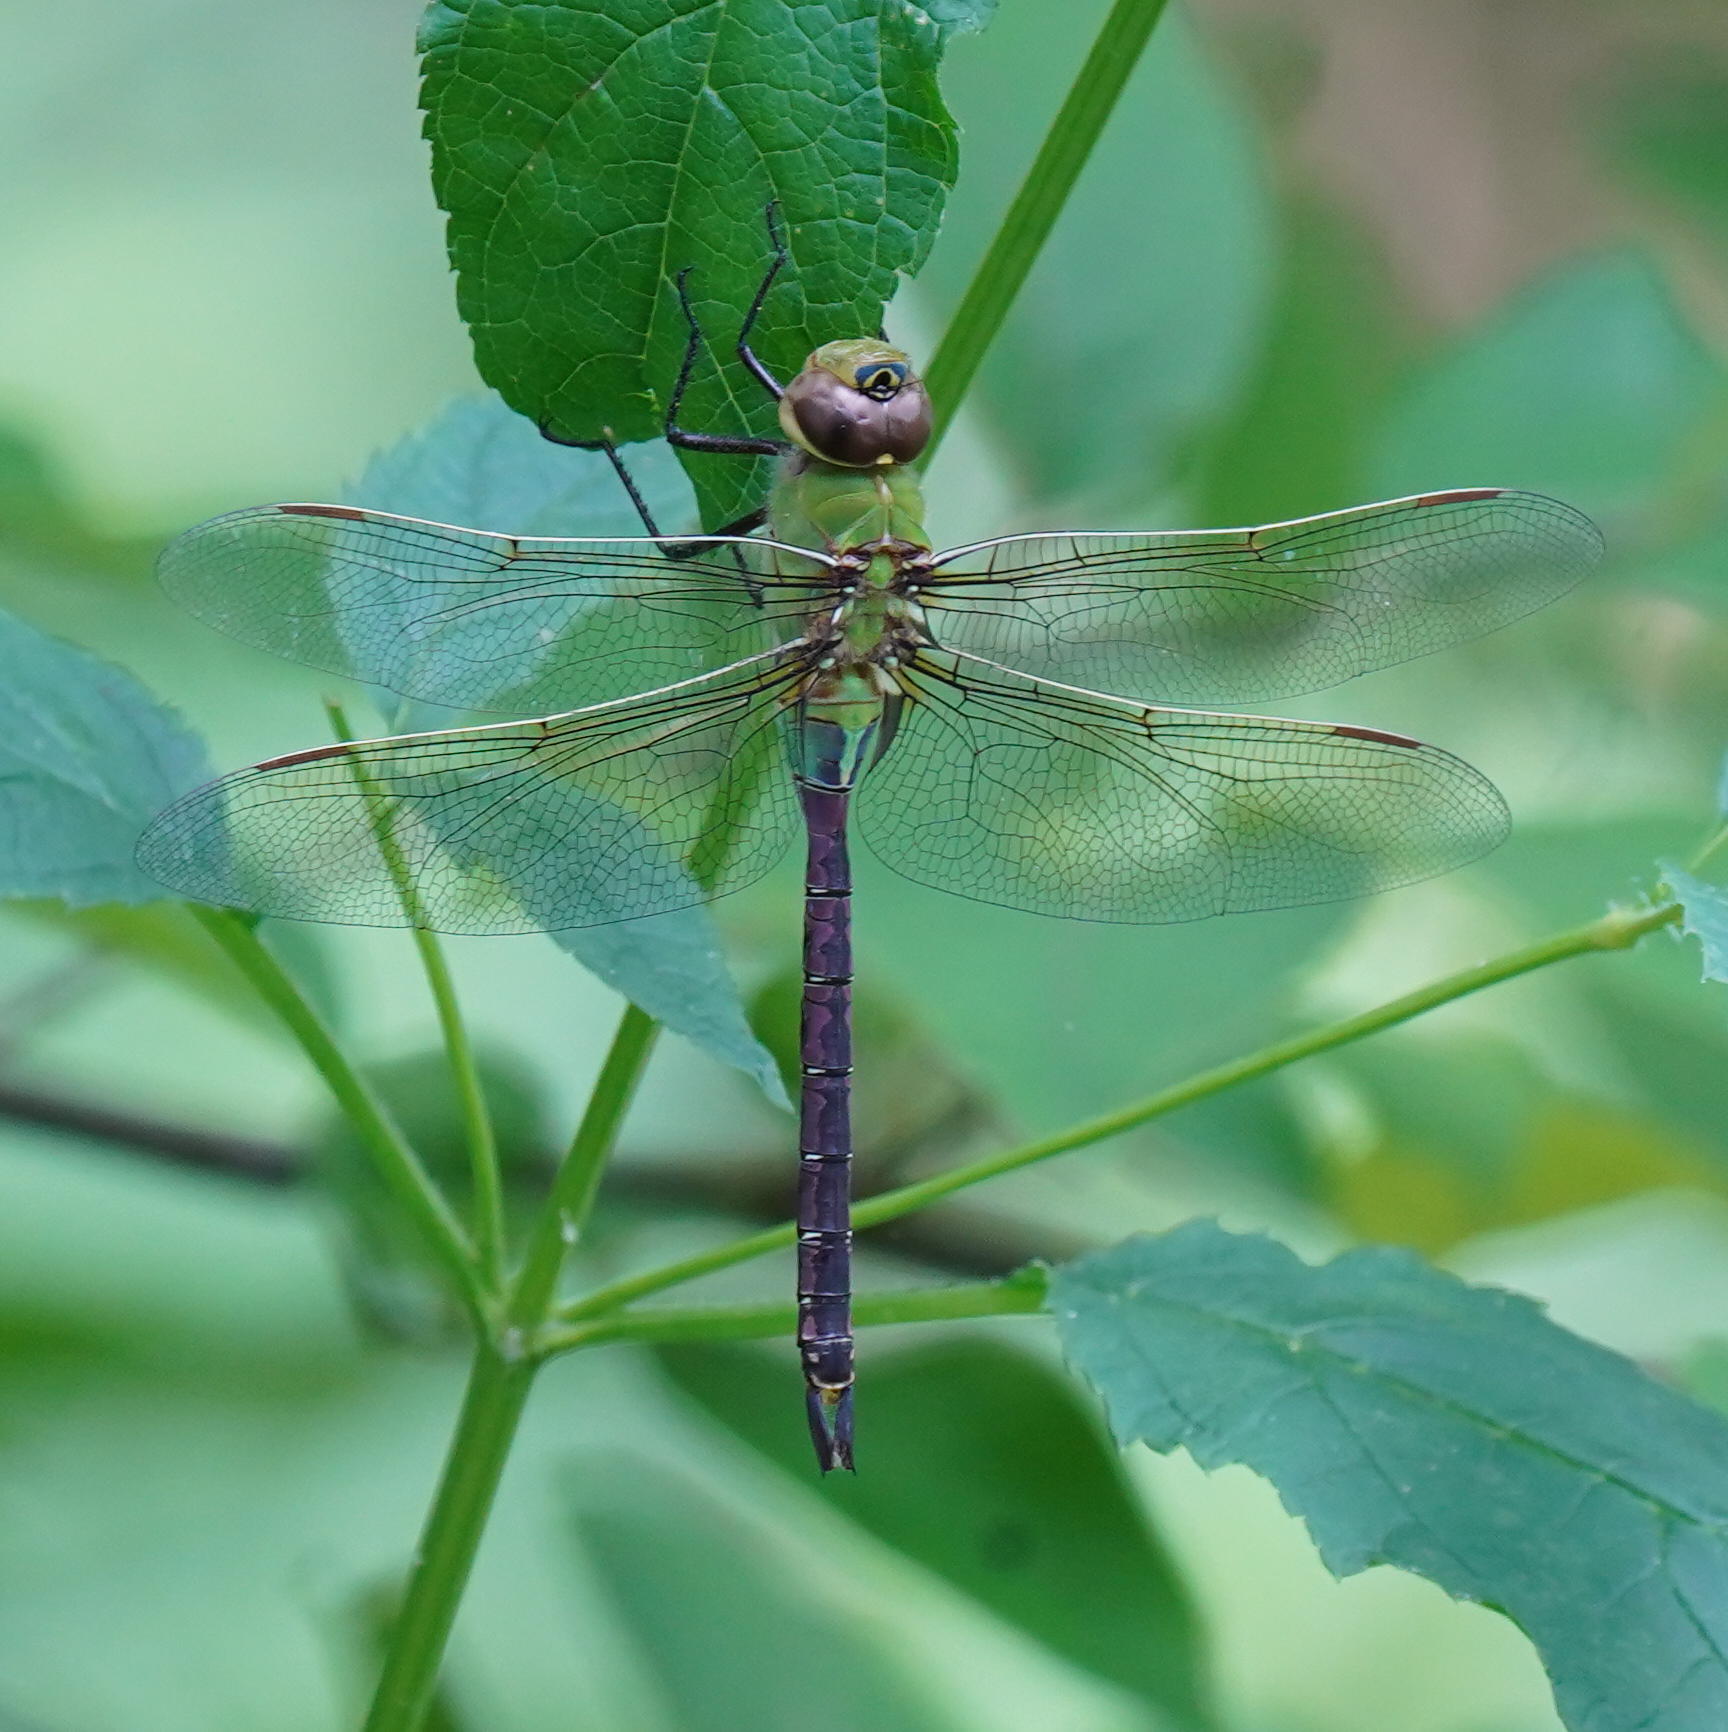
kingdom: Animalia
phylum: Arthropoda
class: Insecta
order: Odonata
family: Aeshnidae
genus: Anax
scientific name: Anax junius
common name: Common green darner
